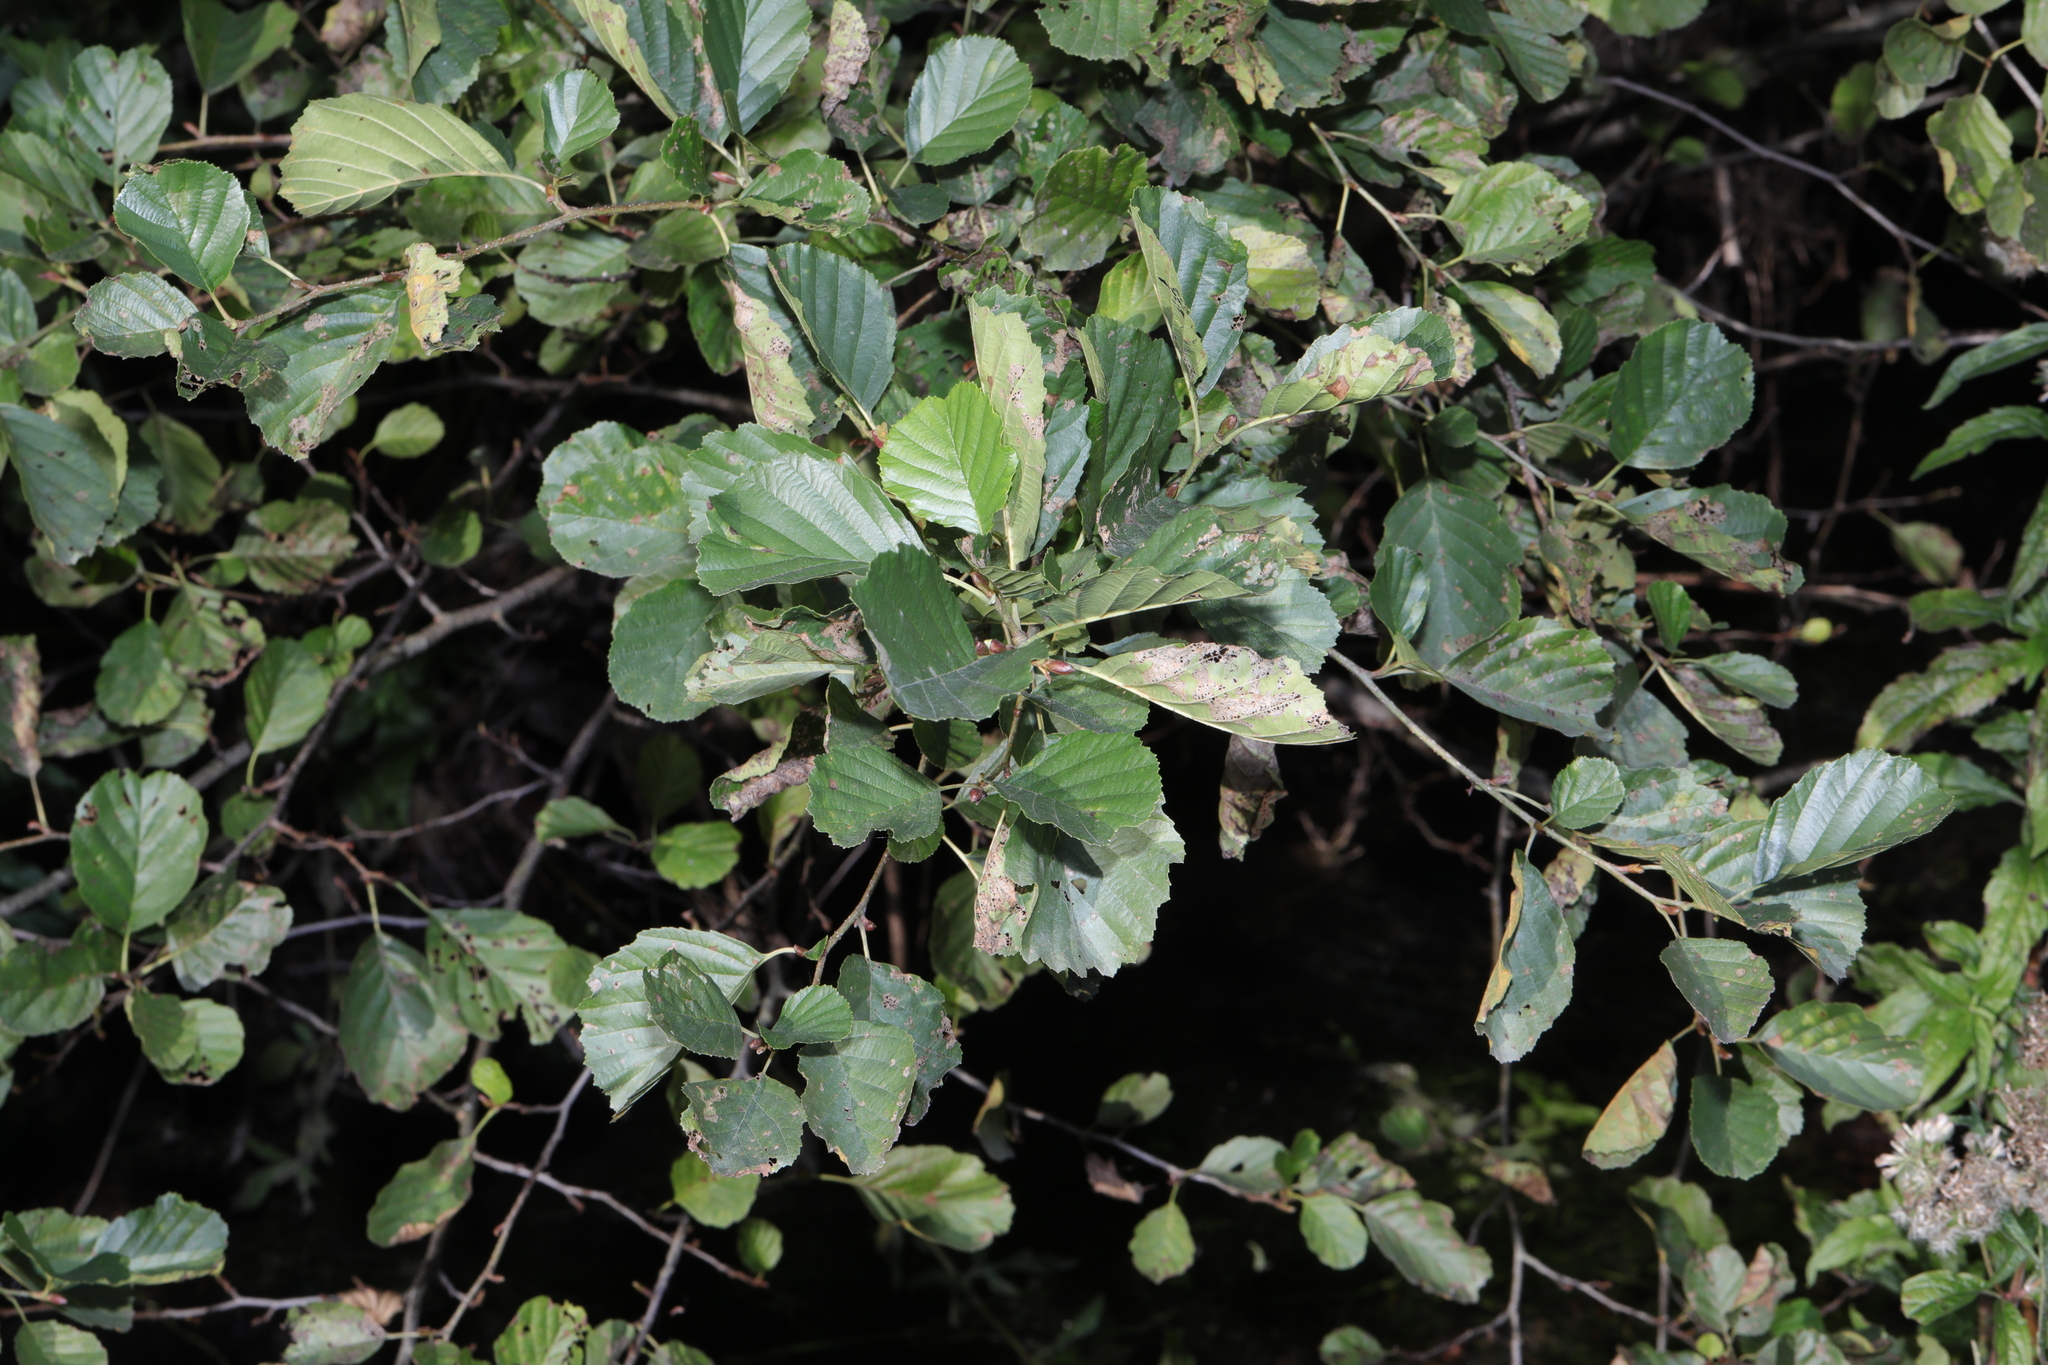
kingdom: Plantae
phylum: Tracheophyta
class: Magnoliopsida
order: Fagales
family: Betulaceae
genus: Alnus
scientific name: Alnus glutinosa
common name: Black alder
